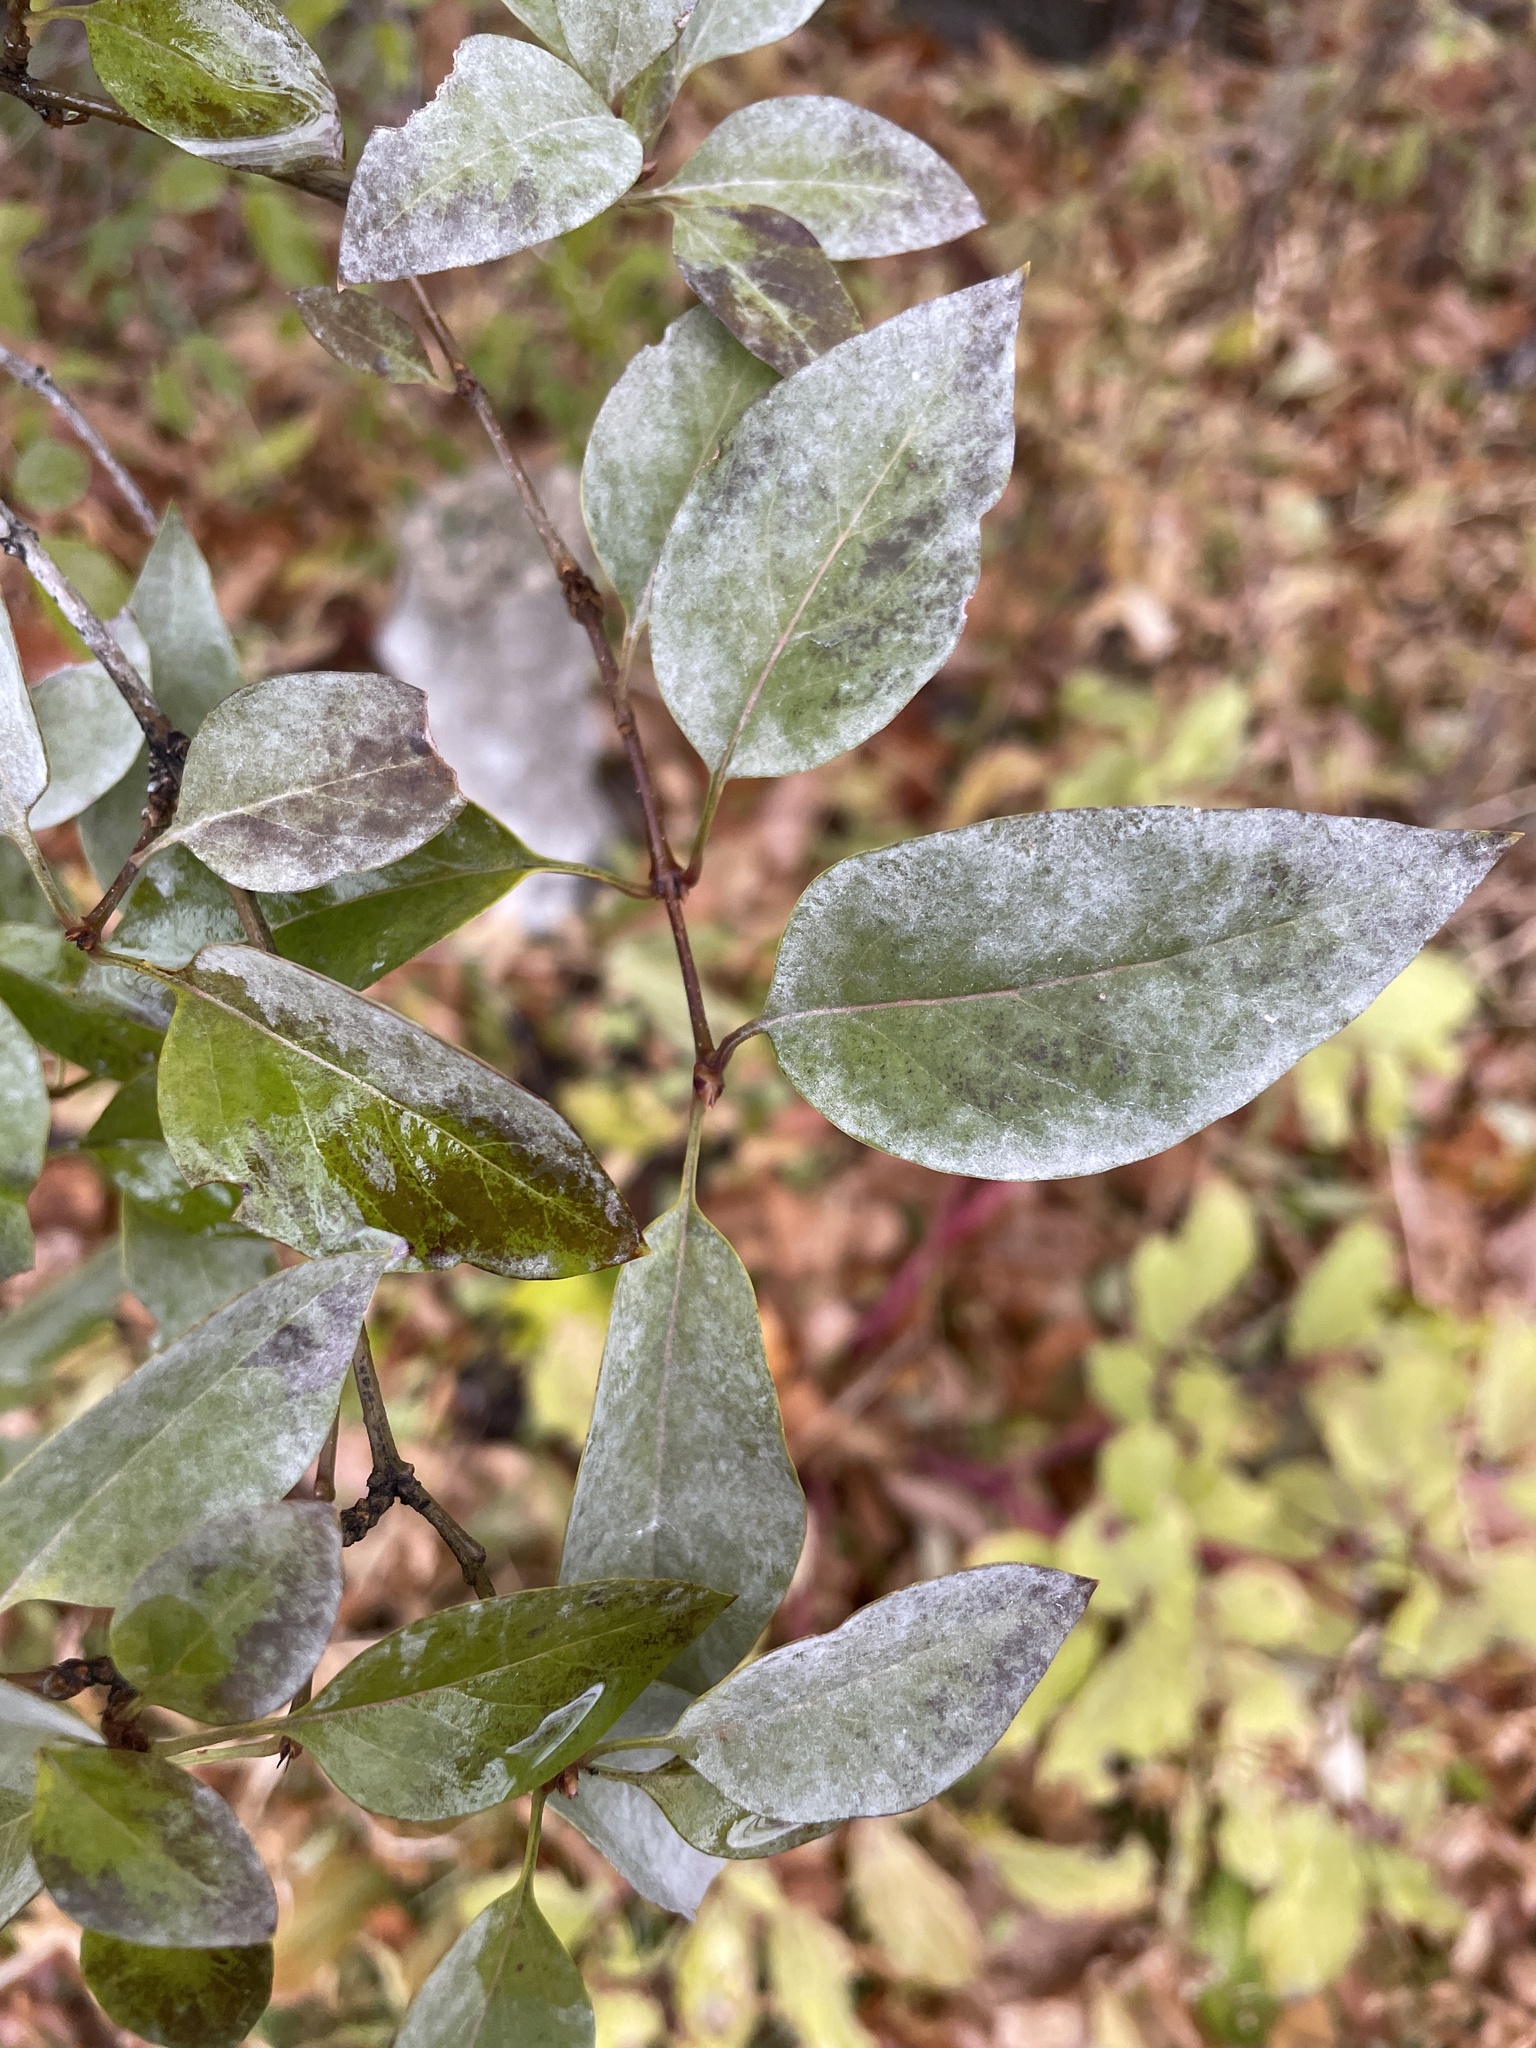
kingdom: Fungi
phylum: Ascomycota
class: Leotiomycetes
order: Helotiales
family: Erysiphaceae
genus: Erysiphe
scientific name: Erysiphe syringae
